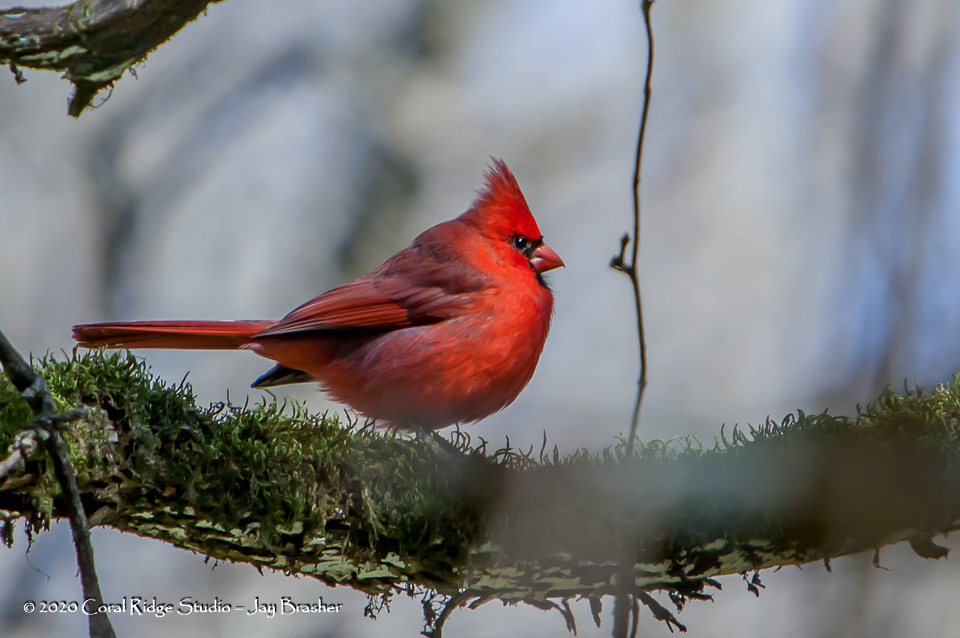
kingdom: Animalia
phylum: Chordata
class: Aves
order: Passeriformes
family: Cardinalidae
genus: Cardinalis
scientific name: Cardinalis cardinalis
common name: Northern cardinal
